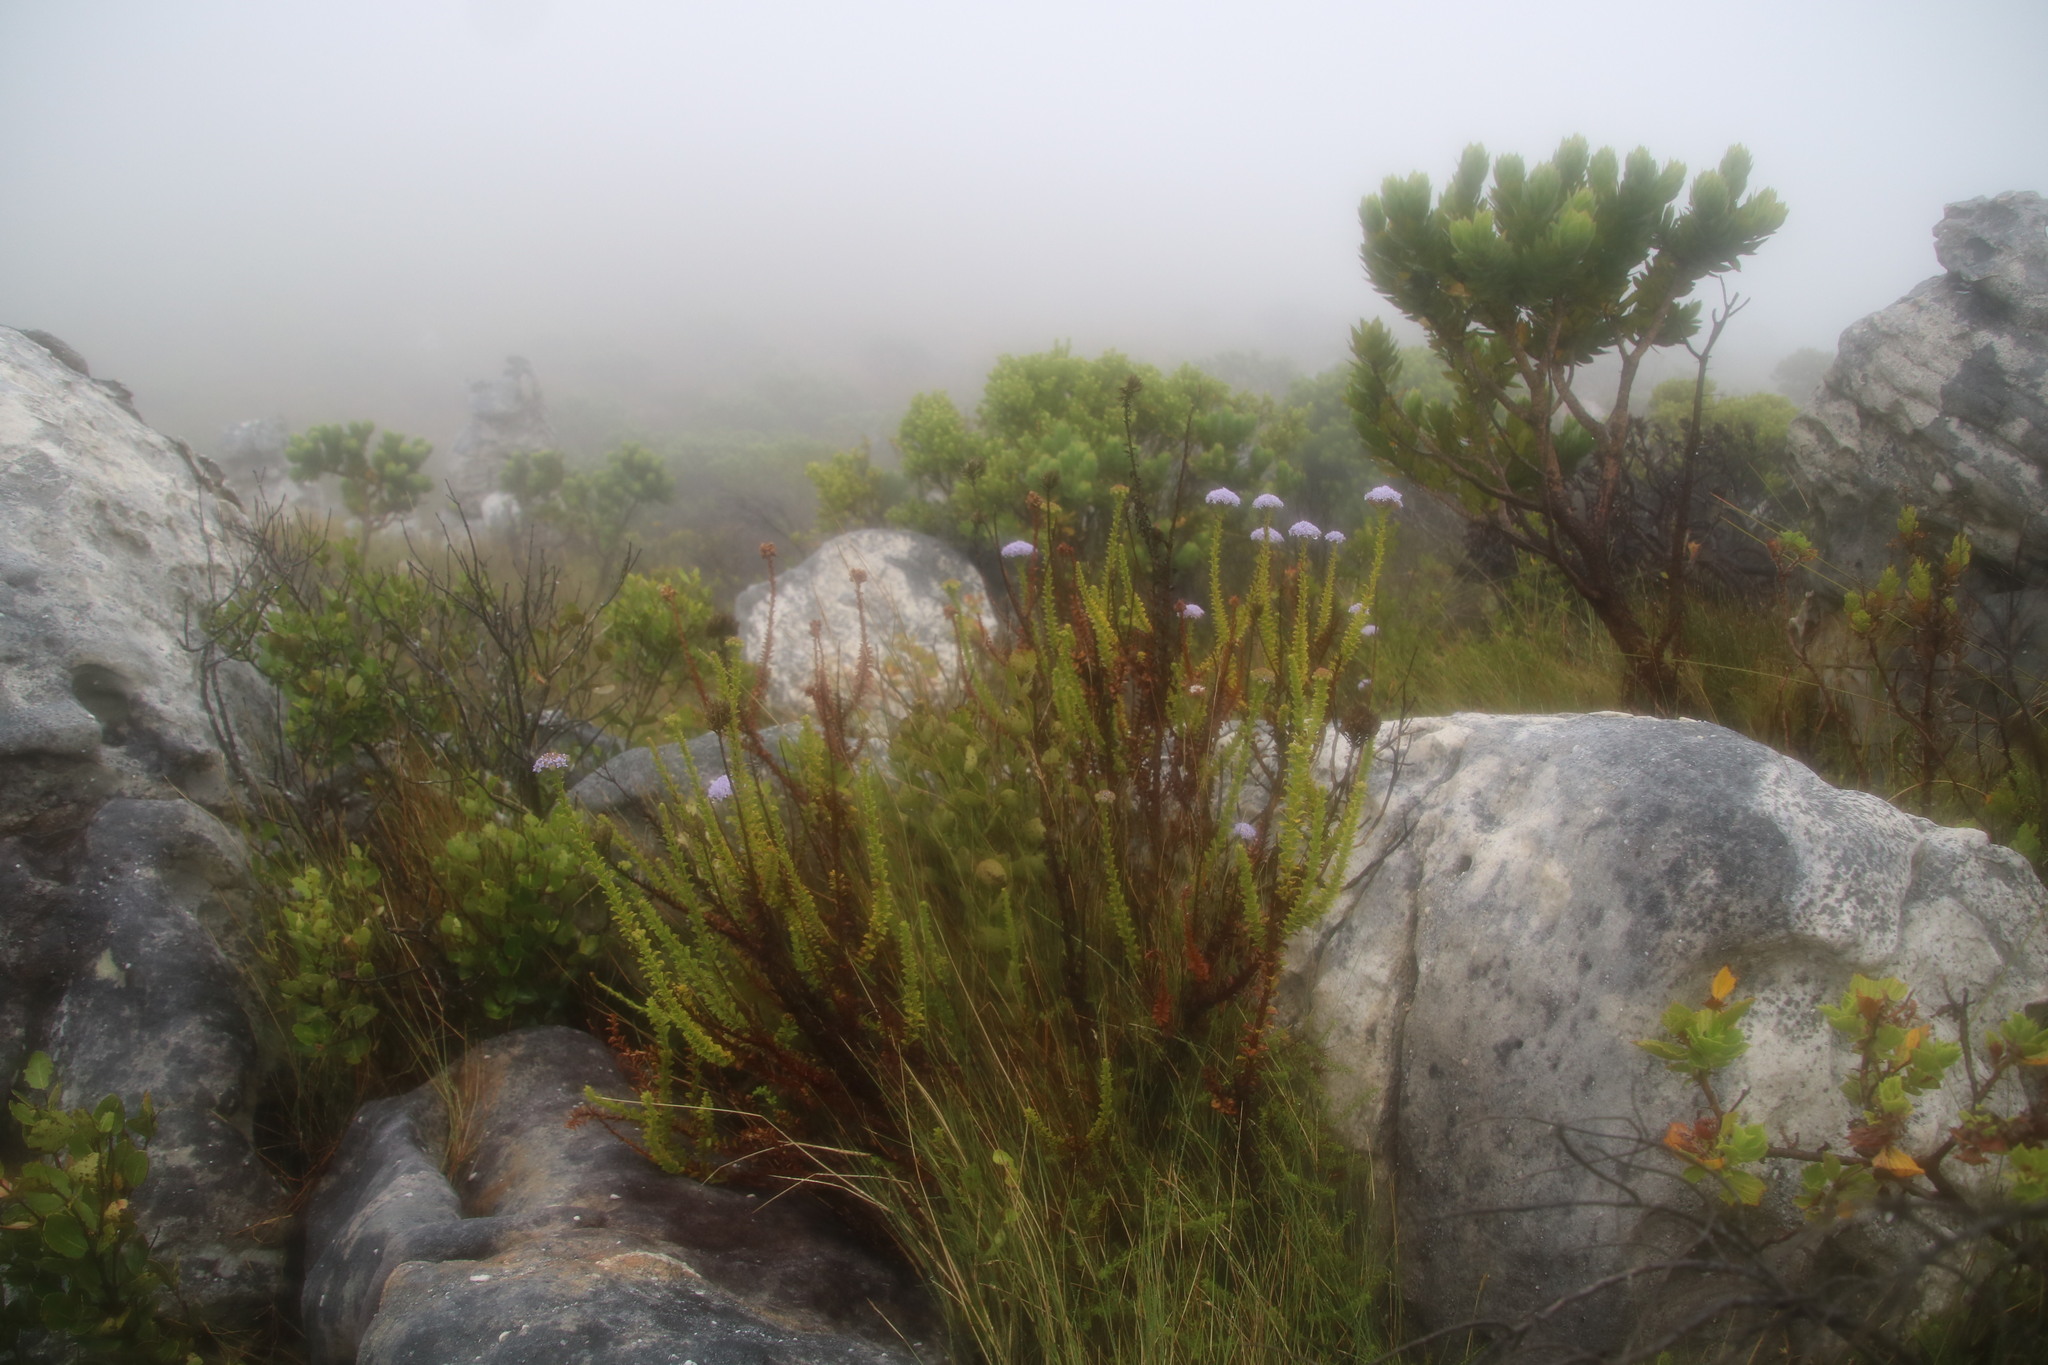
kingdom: Plantae
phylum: Tracheophyta
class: Magnoliopsida
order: Lamiales
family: Scrophulariaceae
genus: Pseudoselago
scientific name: Pseudoselago serrata
